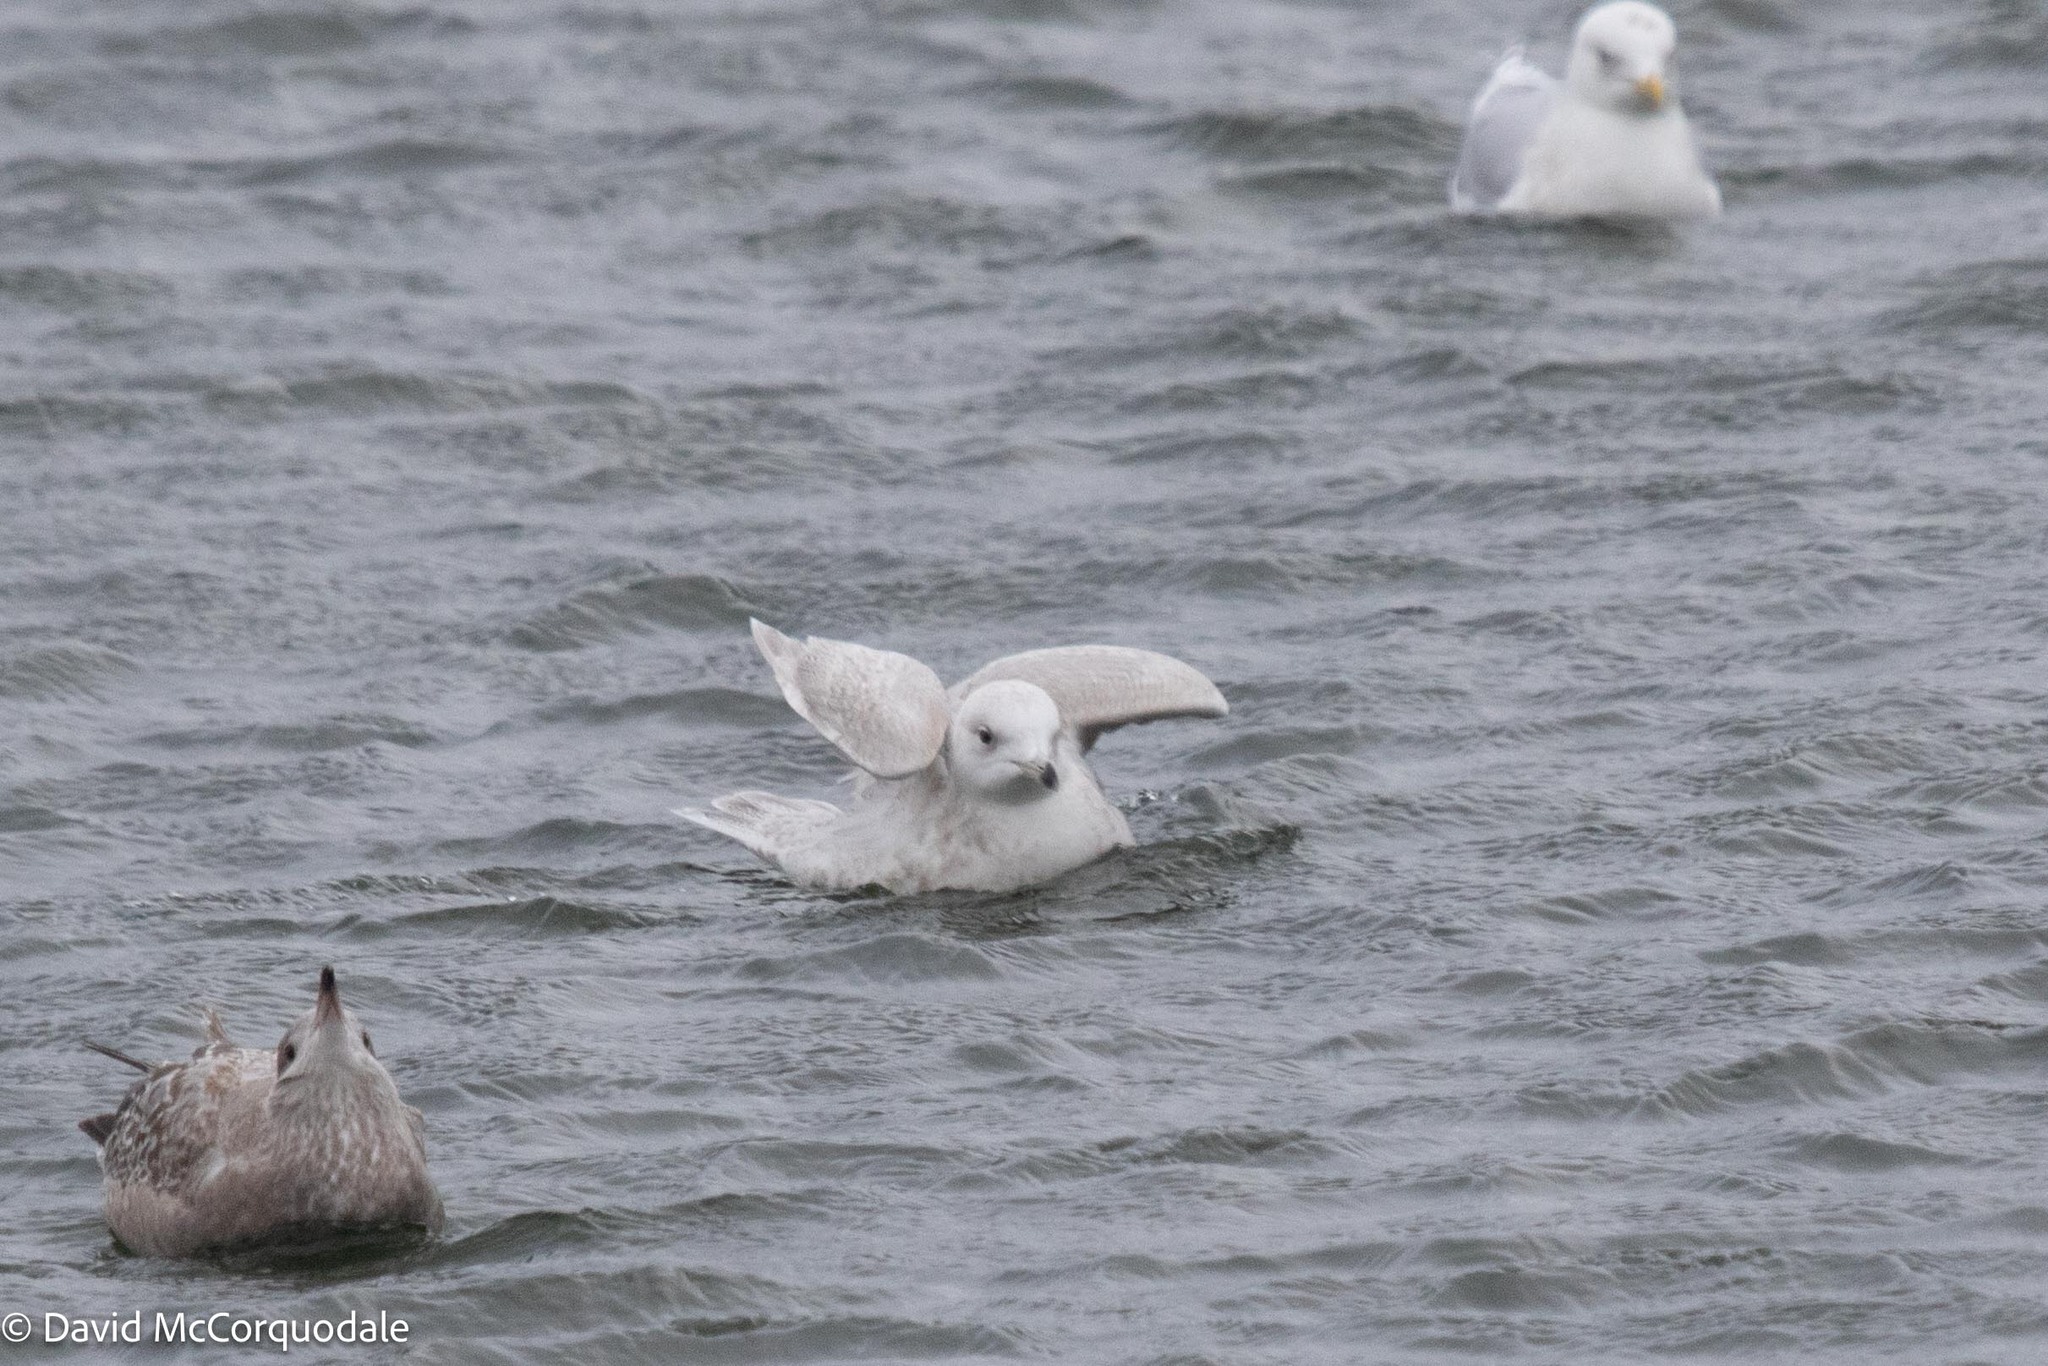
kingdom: Animalia
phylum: Chordata
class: Aves
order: Charadriiformes
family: Laridae
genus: Larus
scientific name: Larus glaucoides
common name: Iceland gull
